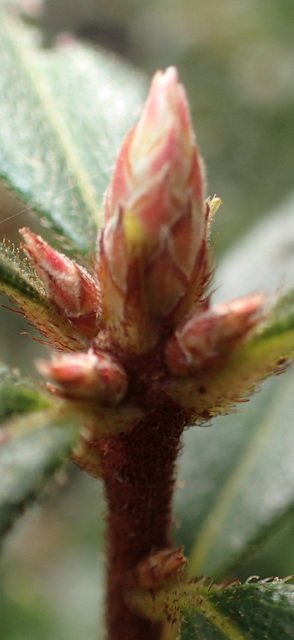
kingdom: Plantae
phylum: Tracheophyta
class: Magnoliopsida
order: Ericales
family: Ericaceae
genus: Rhododendron
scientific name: Rhododendron serrulatum
